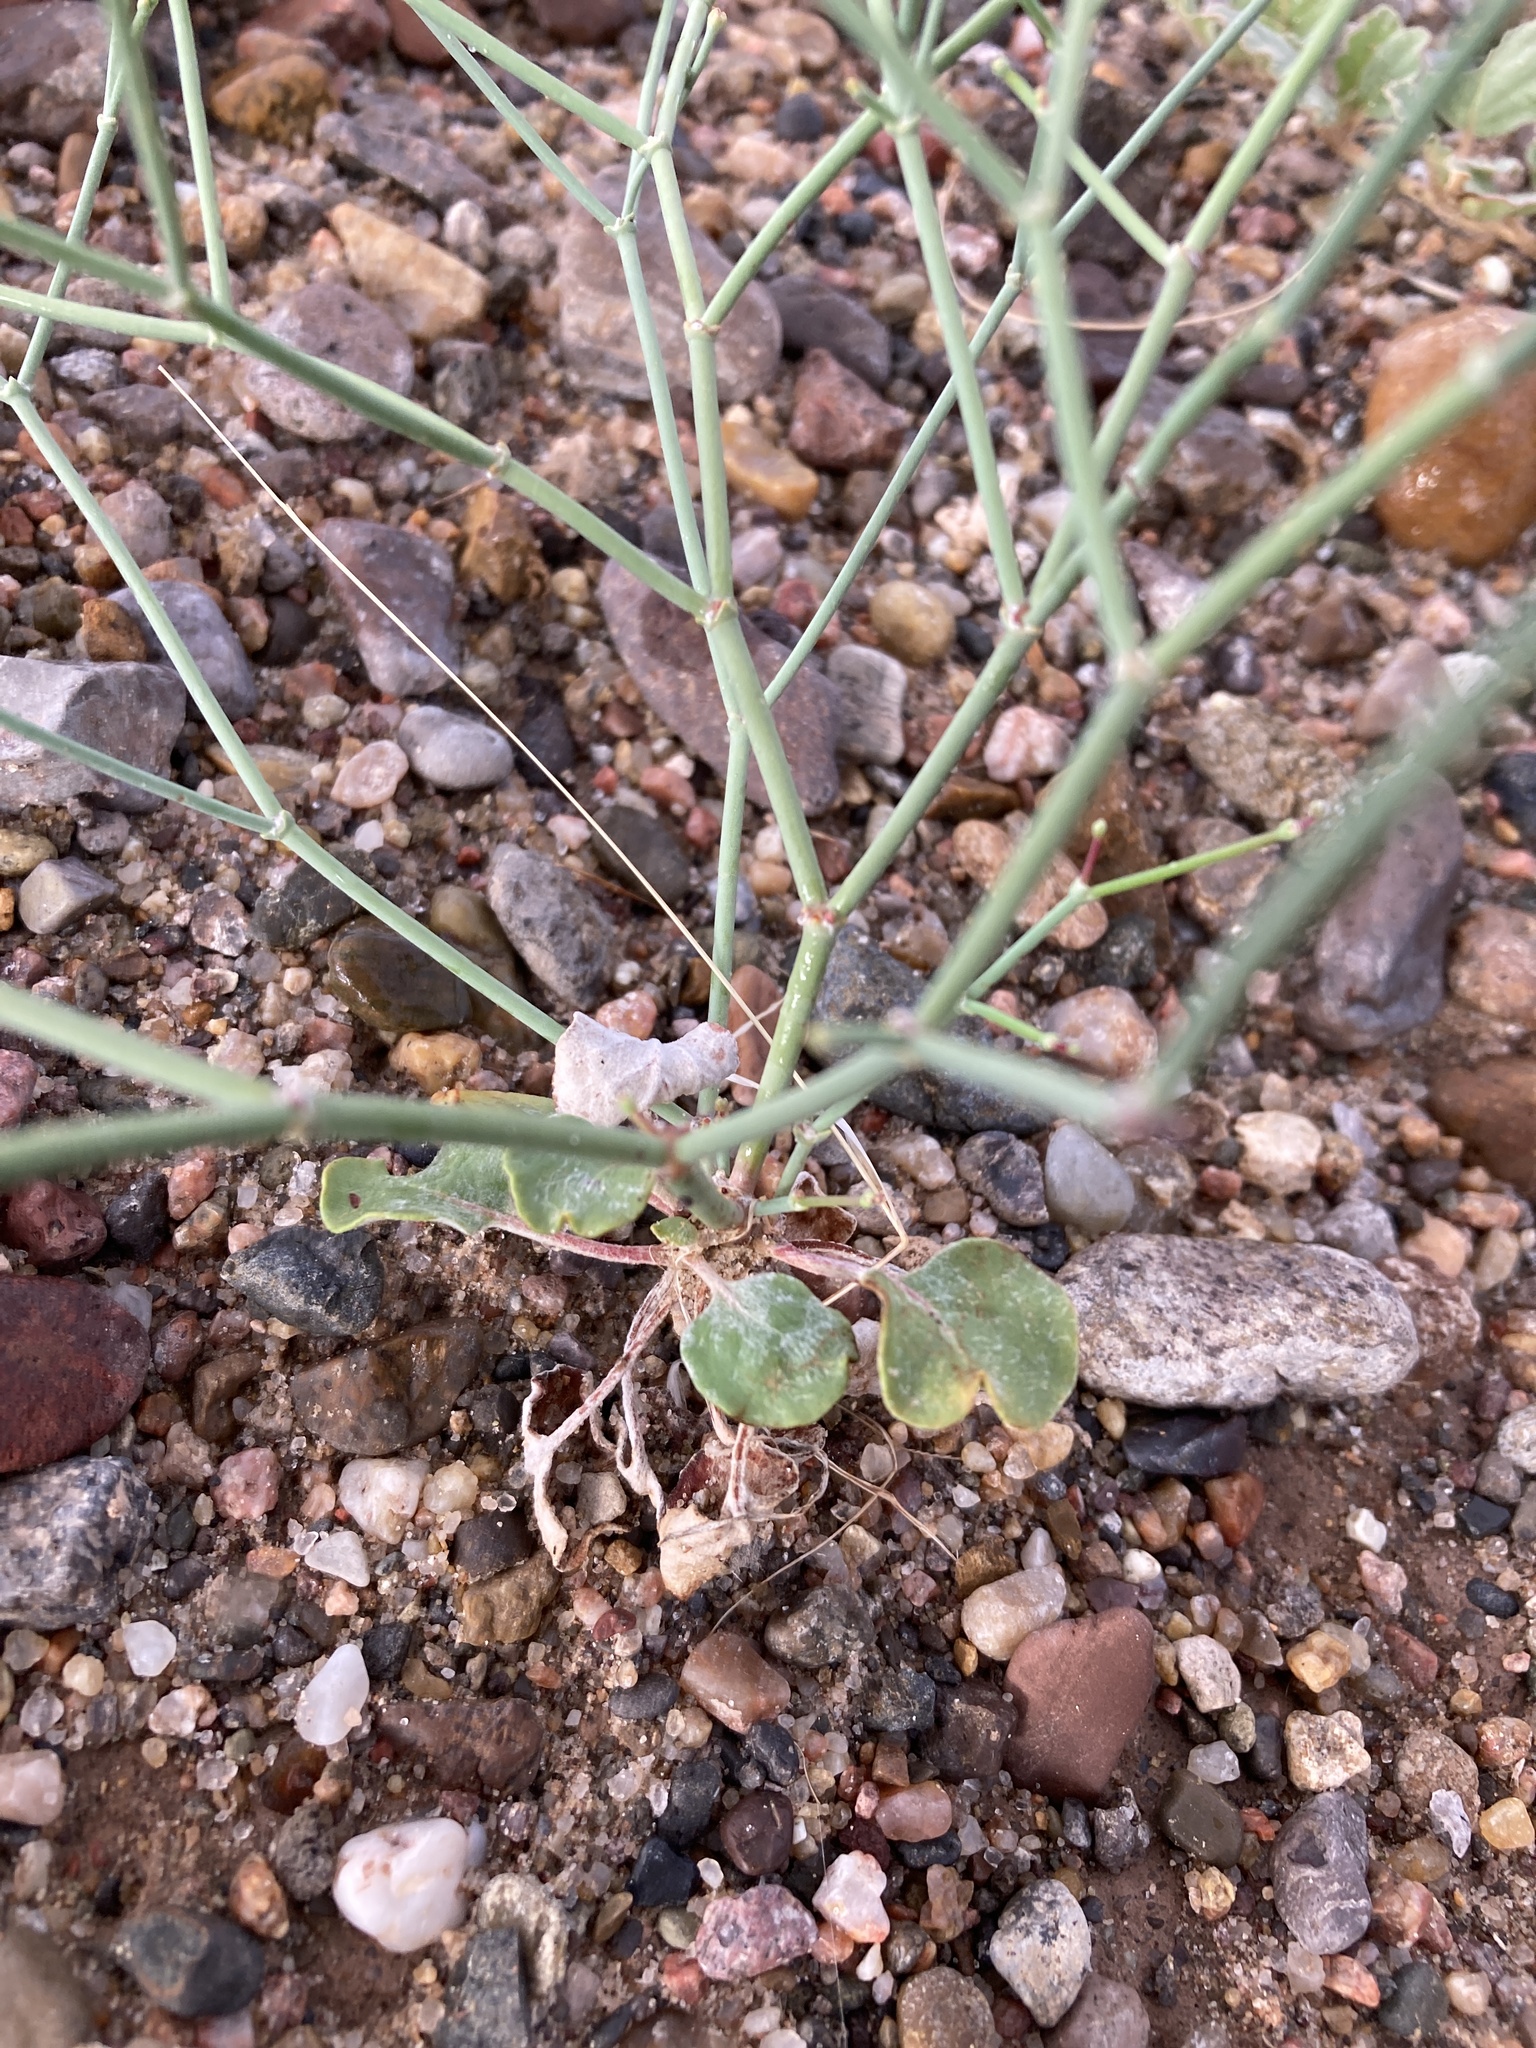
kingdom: Plantae
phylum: Tracheophyta
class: Magnoliopsida
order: Caryophyllales
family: Polygonaceae
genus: Eriogonum
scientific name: Eriogonum rotundifolium
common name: Round-leaf wild buckwheat
